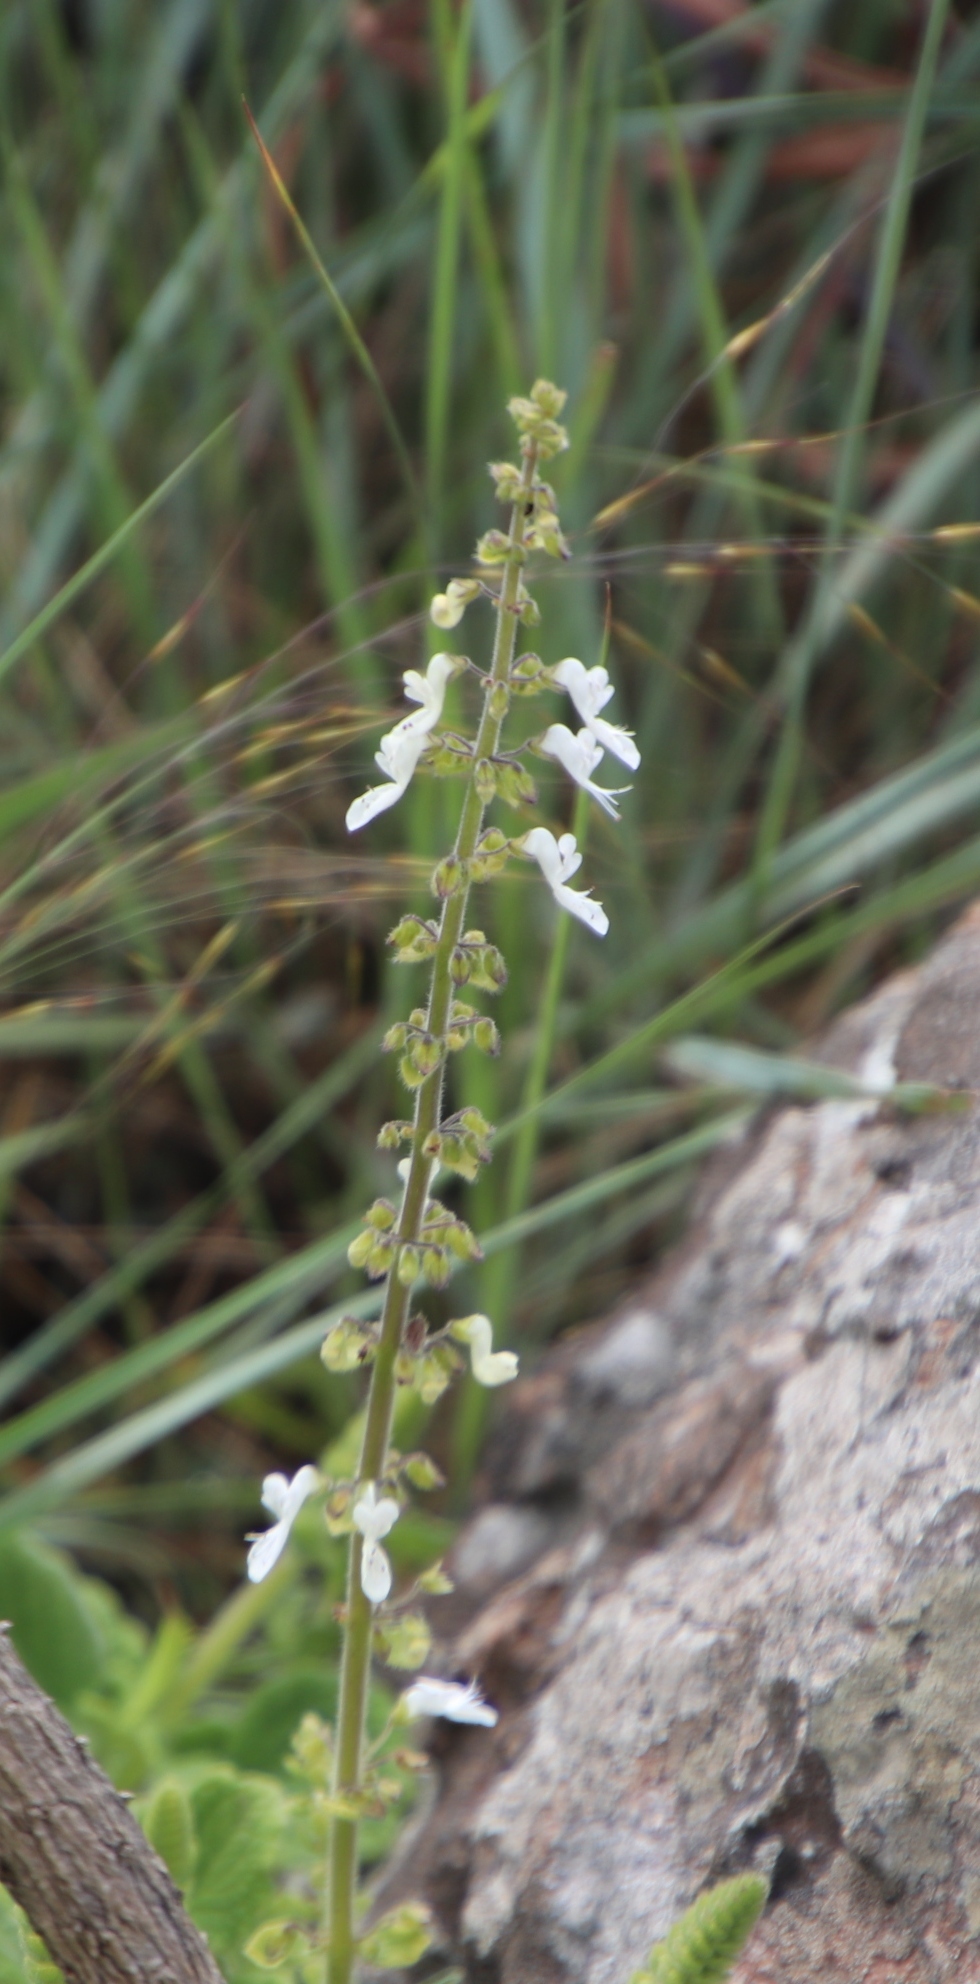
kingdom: Plantae
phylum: Tracheophyta
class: Magnoliopsida
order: Lamiales
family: Lamiaceae
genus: Coleus
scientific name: Coleus hadiensis
